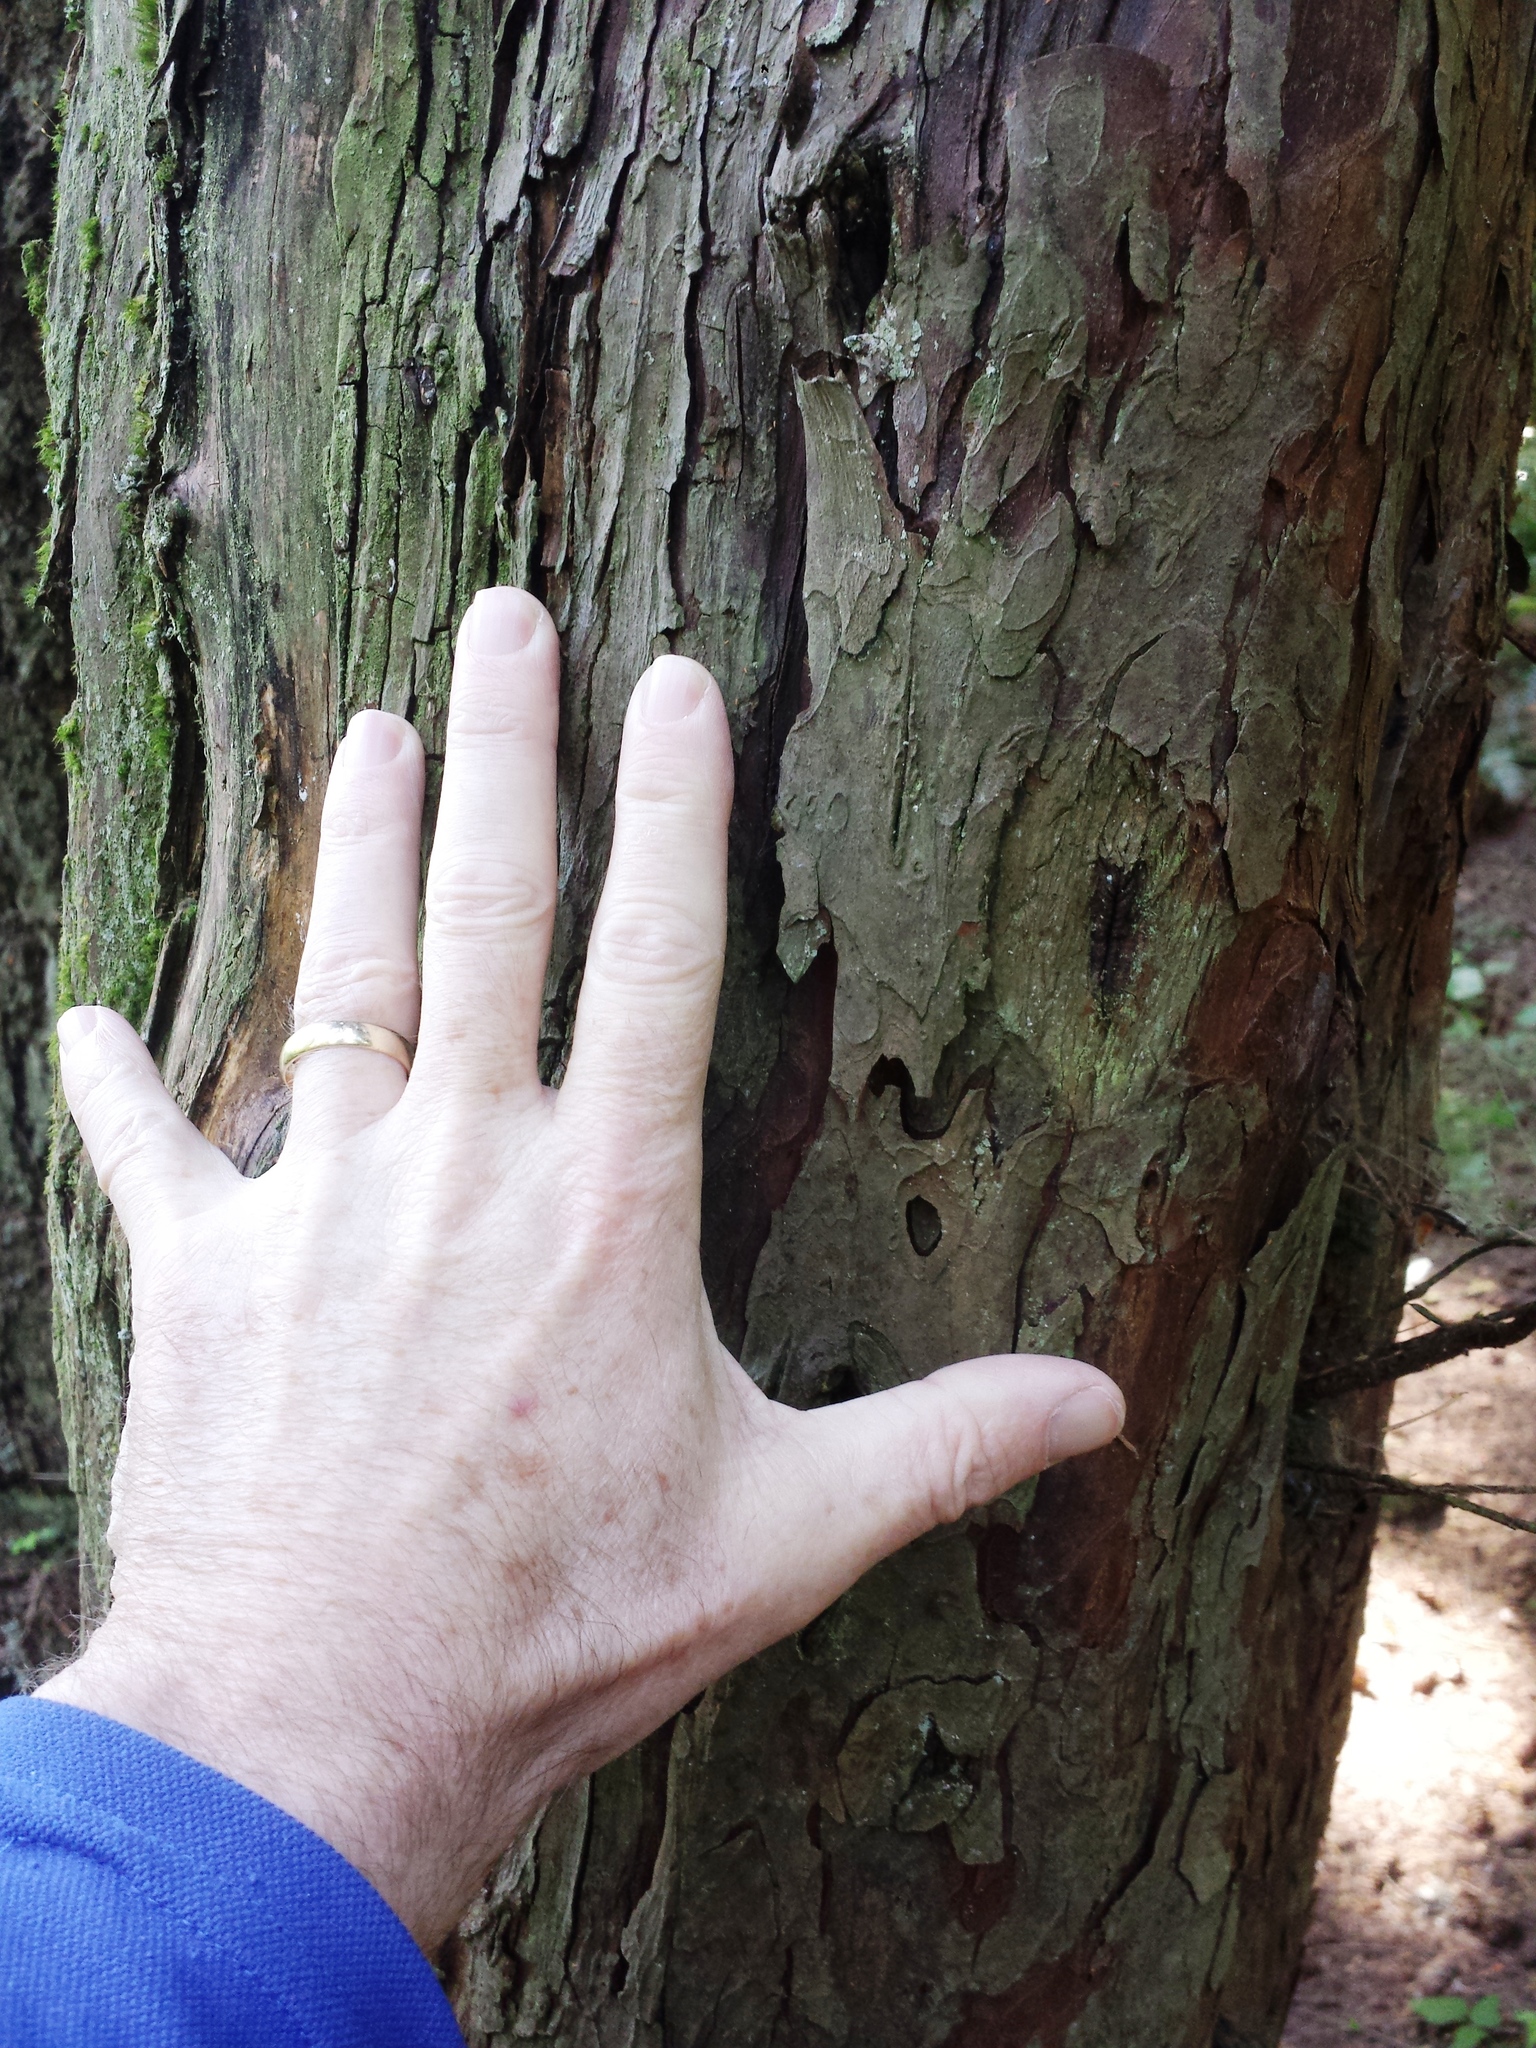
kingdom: Plantae
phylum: Tracheophyta
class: Pinopsida
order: Pinales
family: Taxaceae
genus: Taxus
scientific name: Taxus brevifolia
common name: Pacific yew
